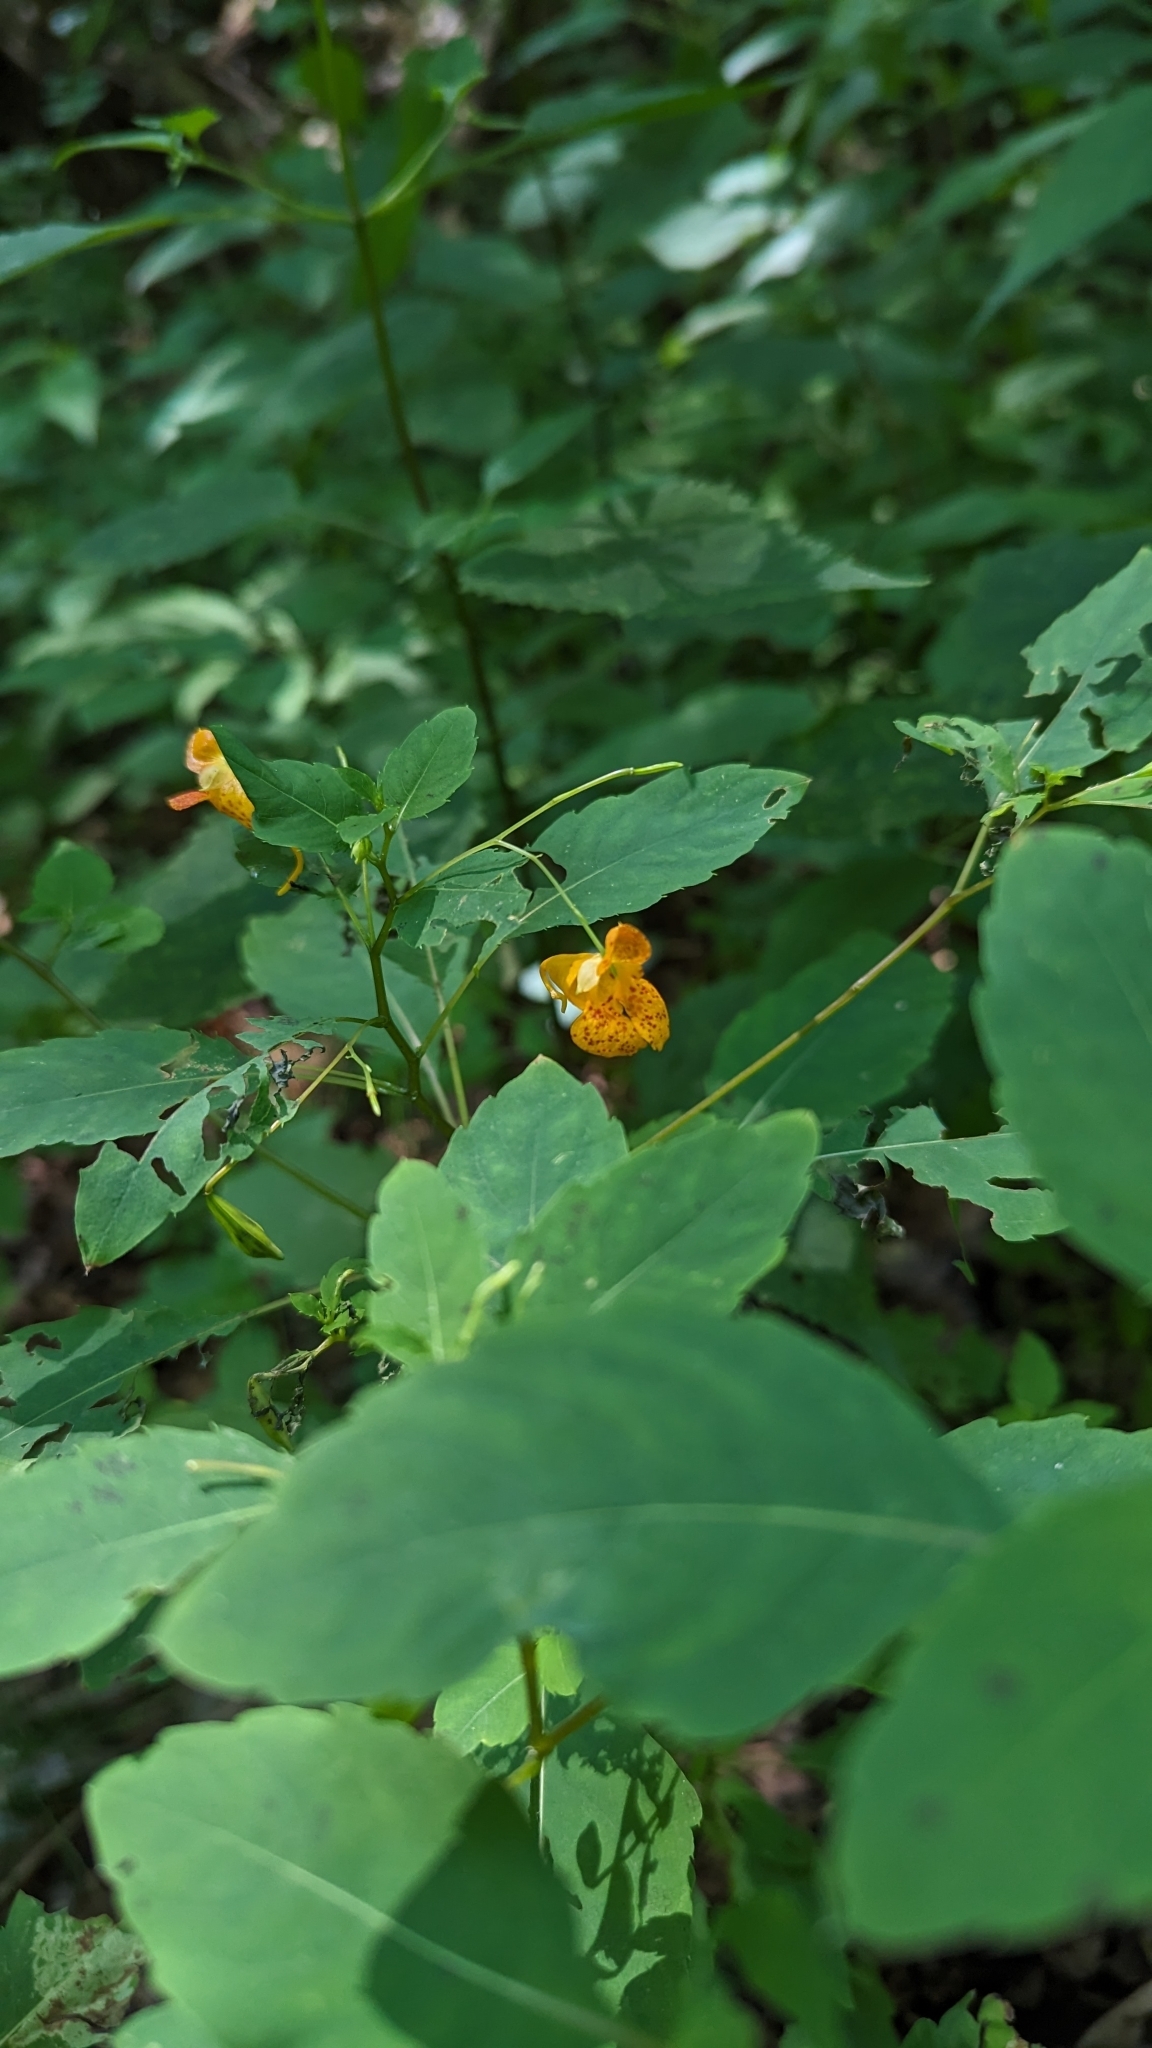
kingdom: Plantae
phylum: Tracheophyta
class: Magnoliopsida
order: Ericales
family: Balsaminaceae
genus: Impatiens
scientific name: Impatiens capensis
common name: Orange balsam
